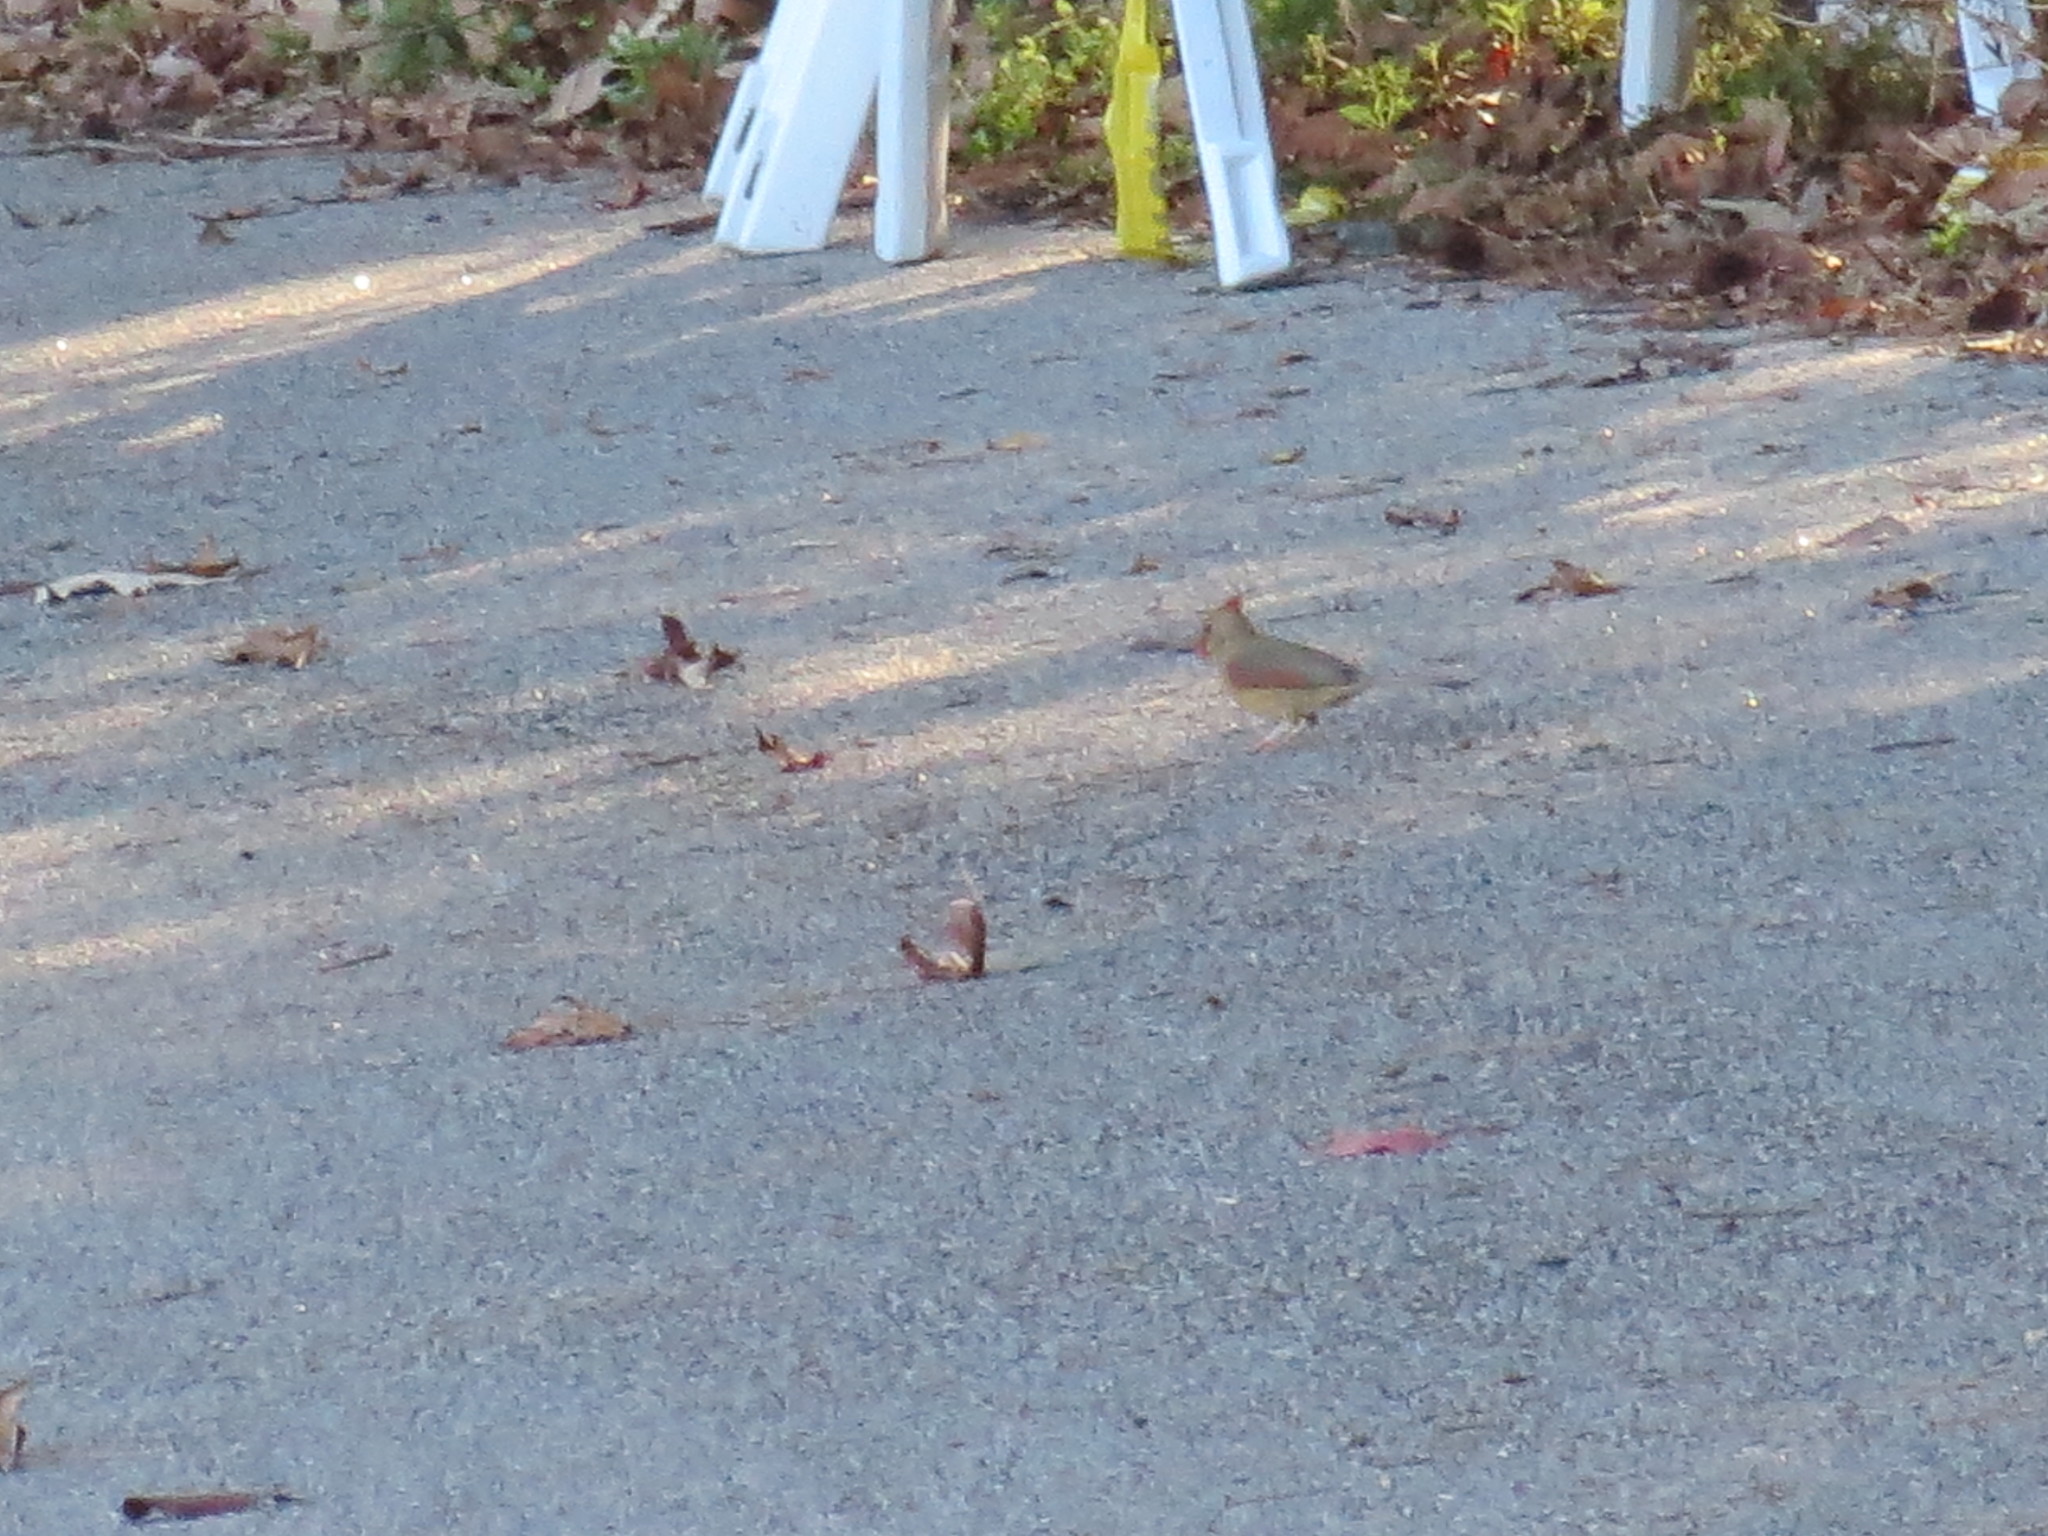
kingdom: Animalia
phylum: Chordata
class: Aves
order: Passeriformes
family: Cardinalidae
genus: Cardinalis
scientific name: Cardinalis cardinalis
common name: Northern cardinal
